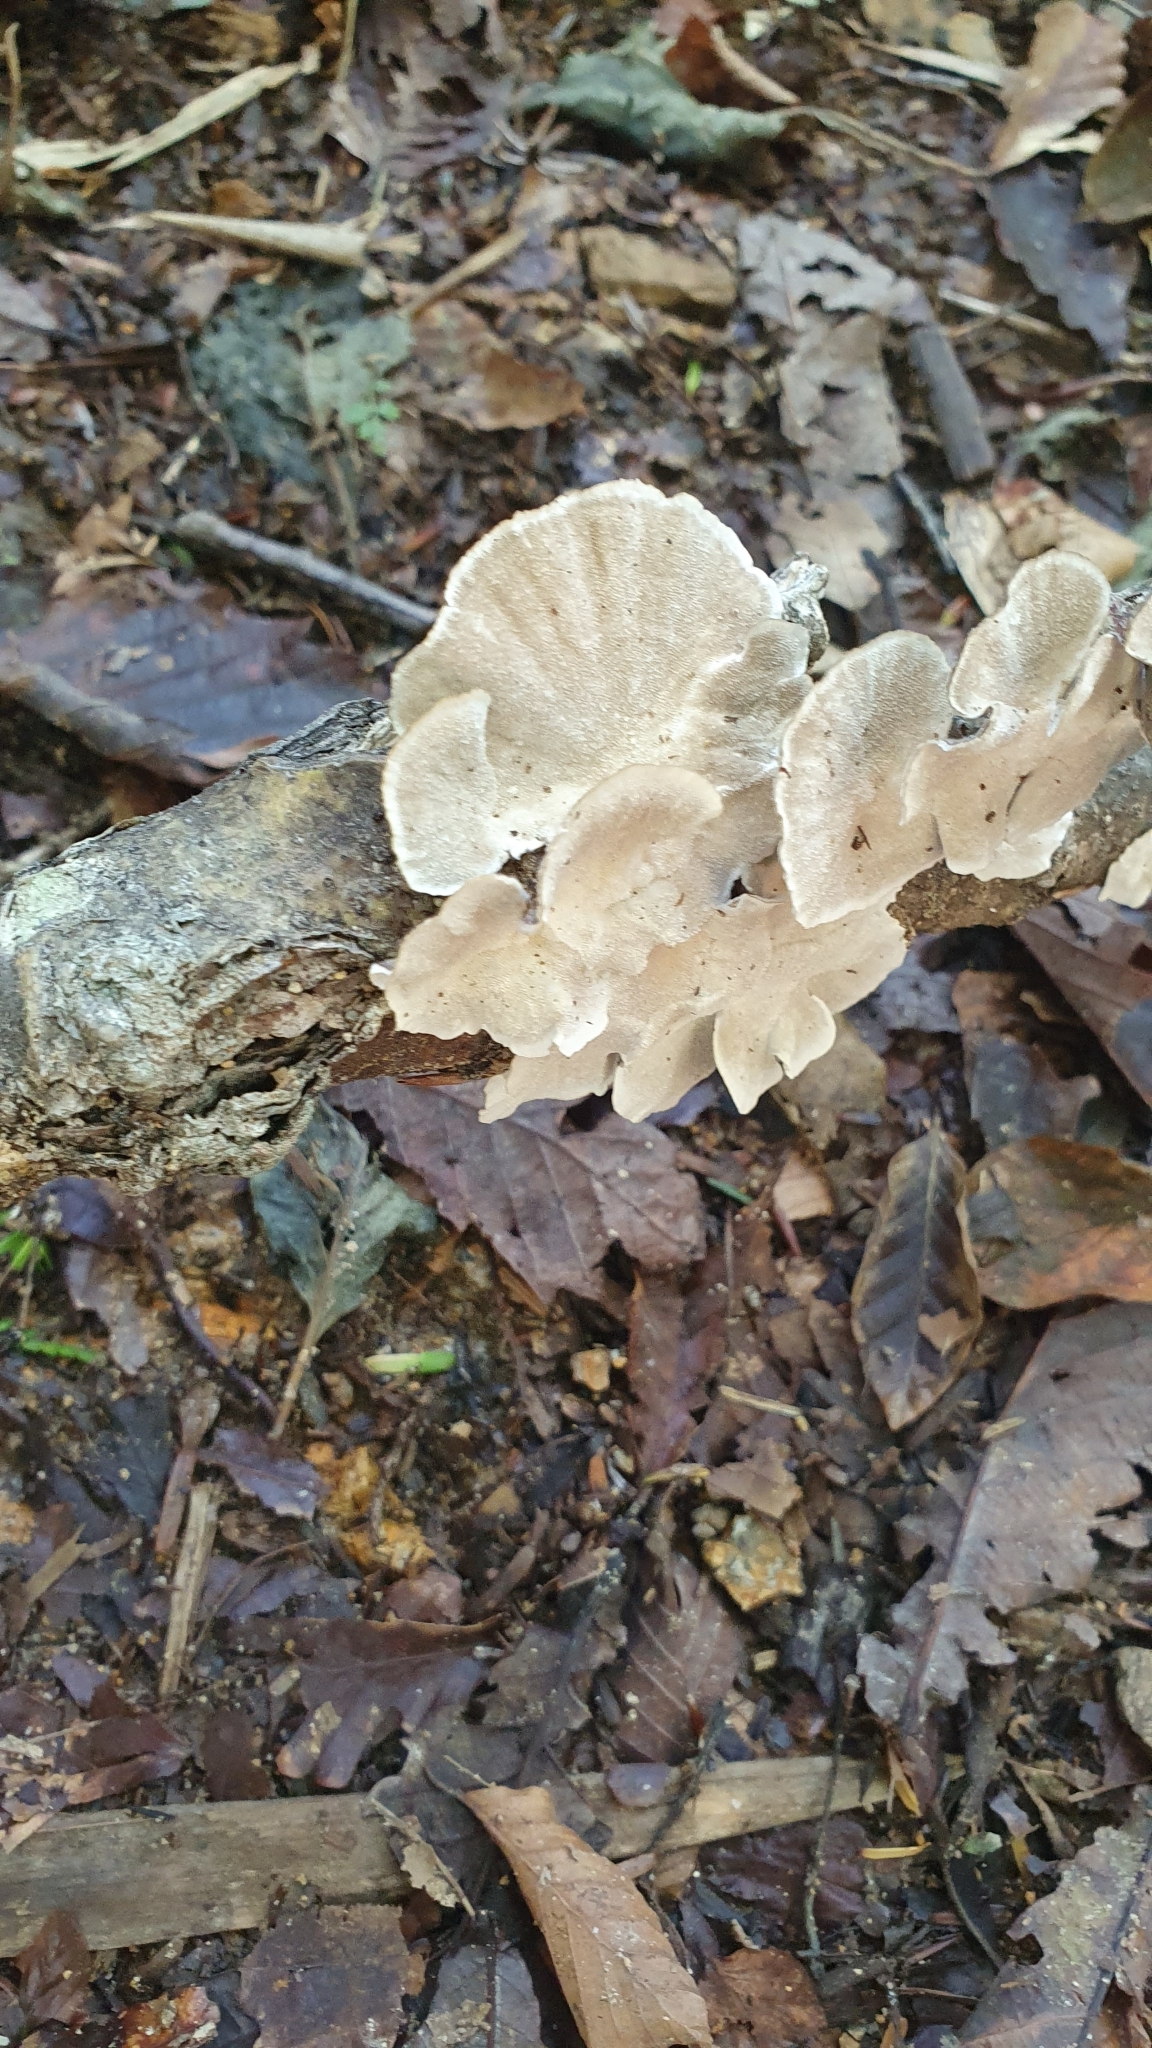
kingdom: Fungi
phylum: Basidiomycota
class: Agaricomycetes
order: Hymenochaetales
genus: Trichaptum
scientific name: Trichaptum biforme
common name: Violet-toothed polypore
